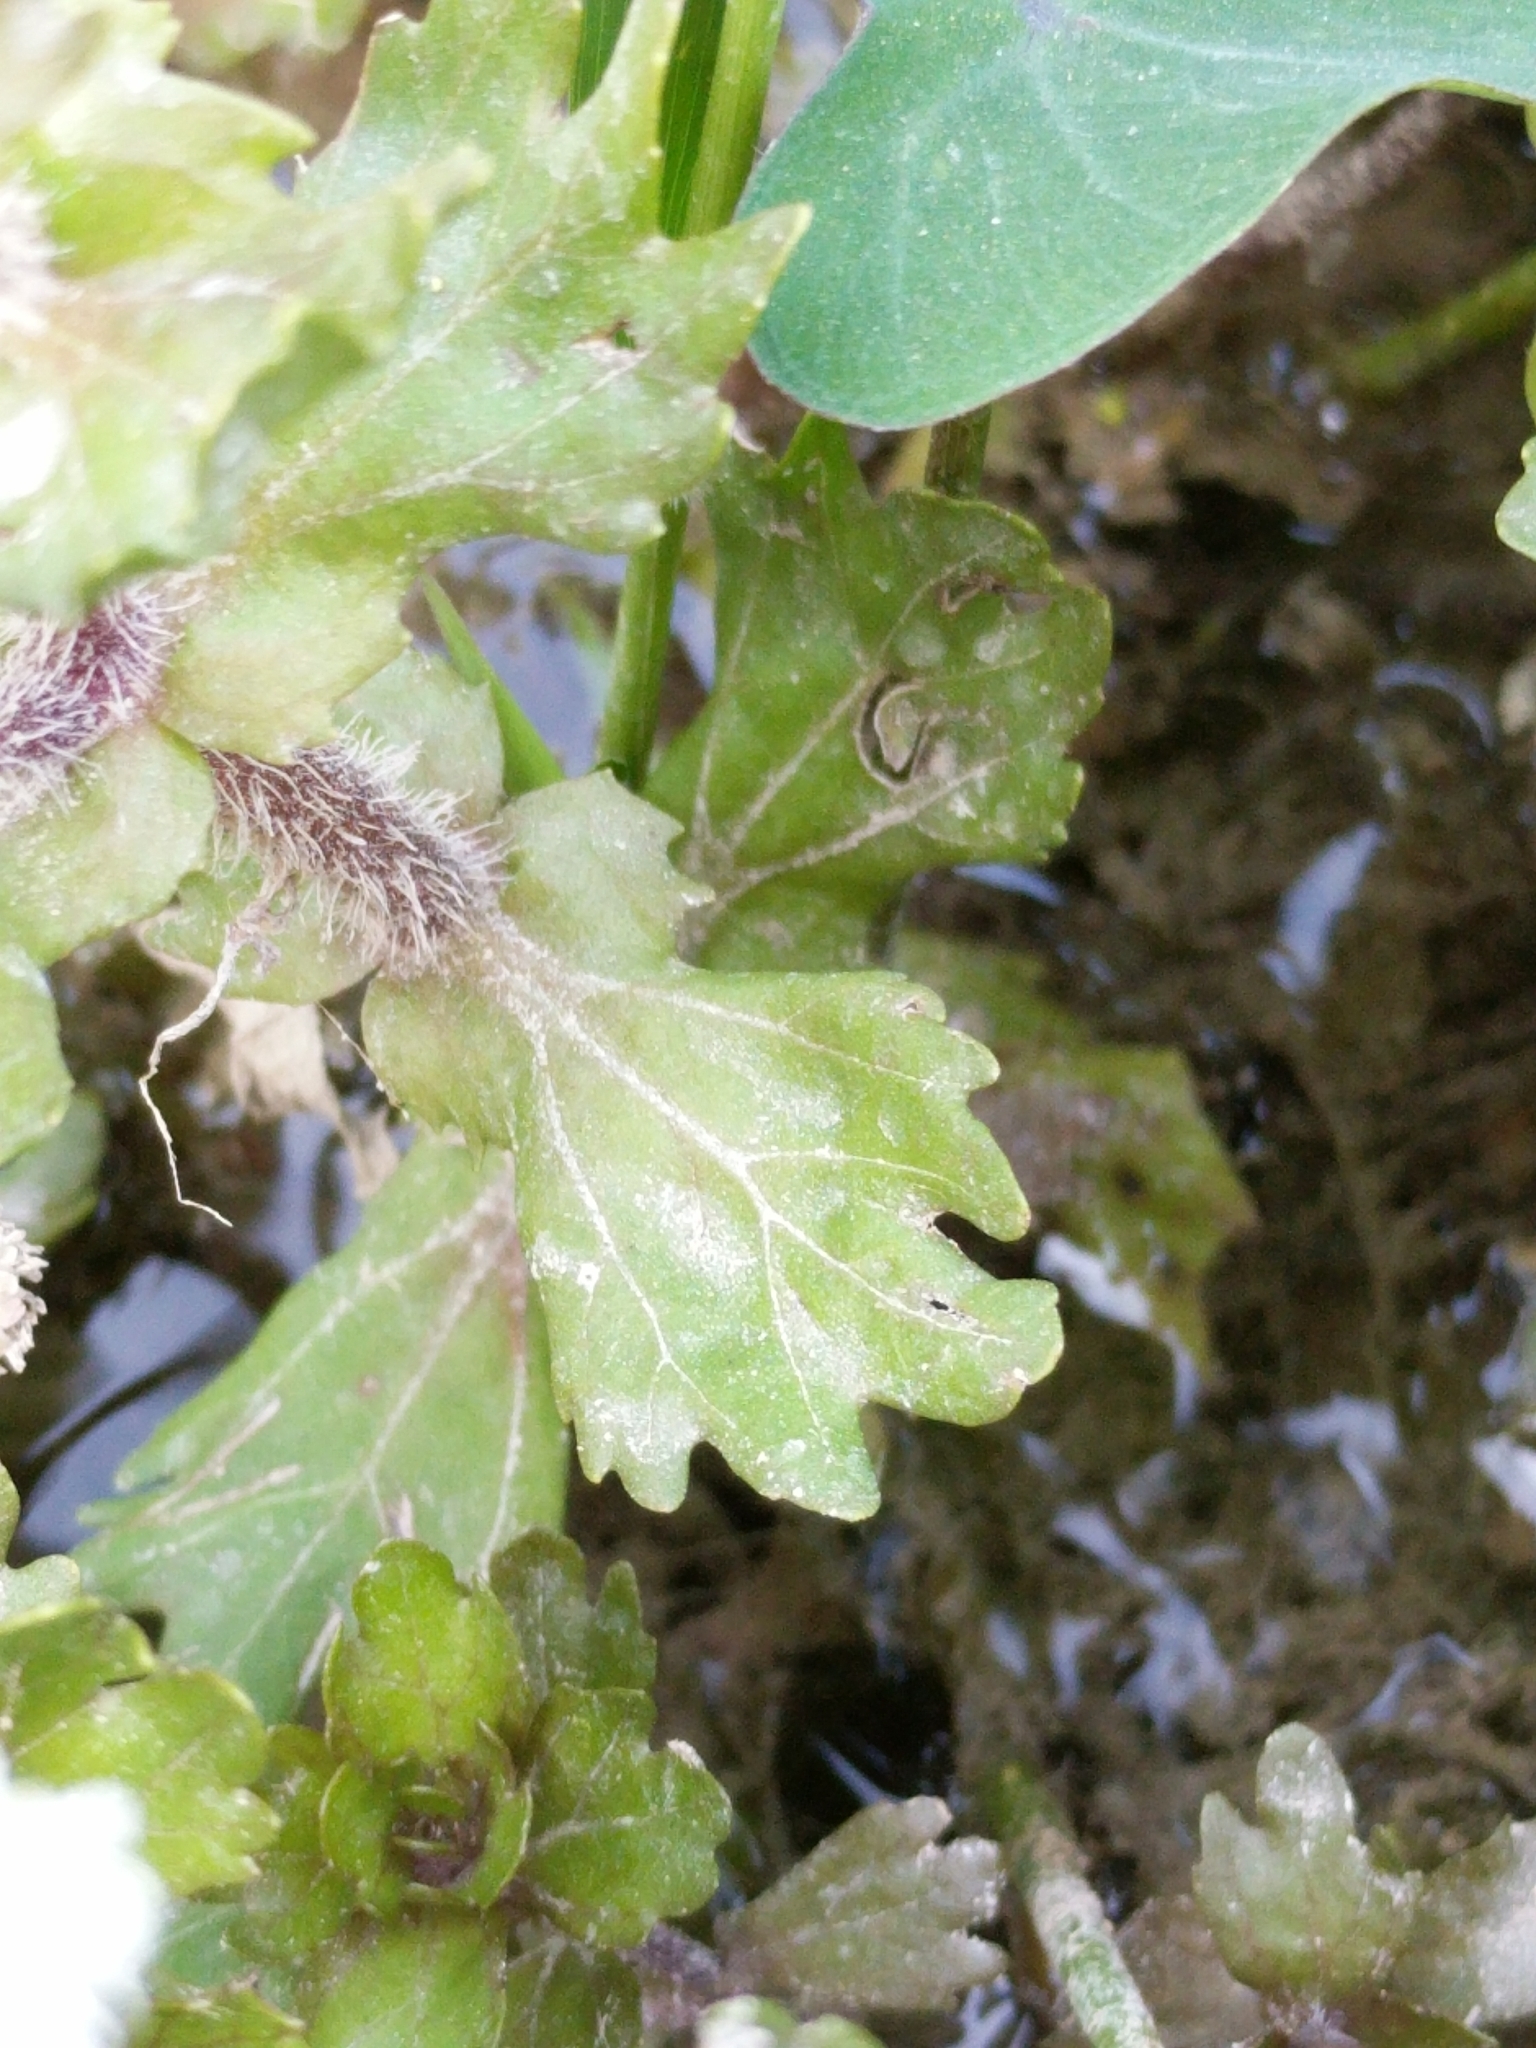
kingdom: Plantae
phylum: Tracheophyta
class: Magnoliopsida
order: Asterales
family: Asteraceae
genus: Shinnersia
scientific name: Shinnersia rivularis
